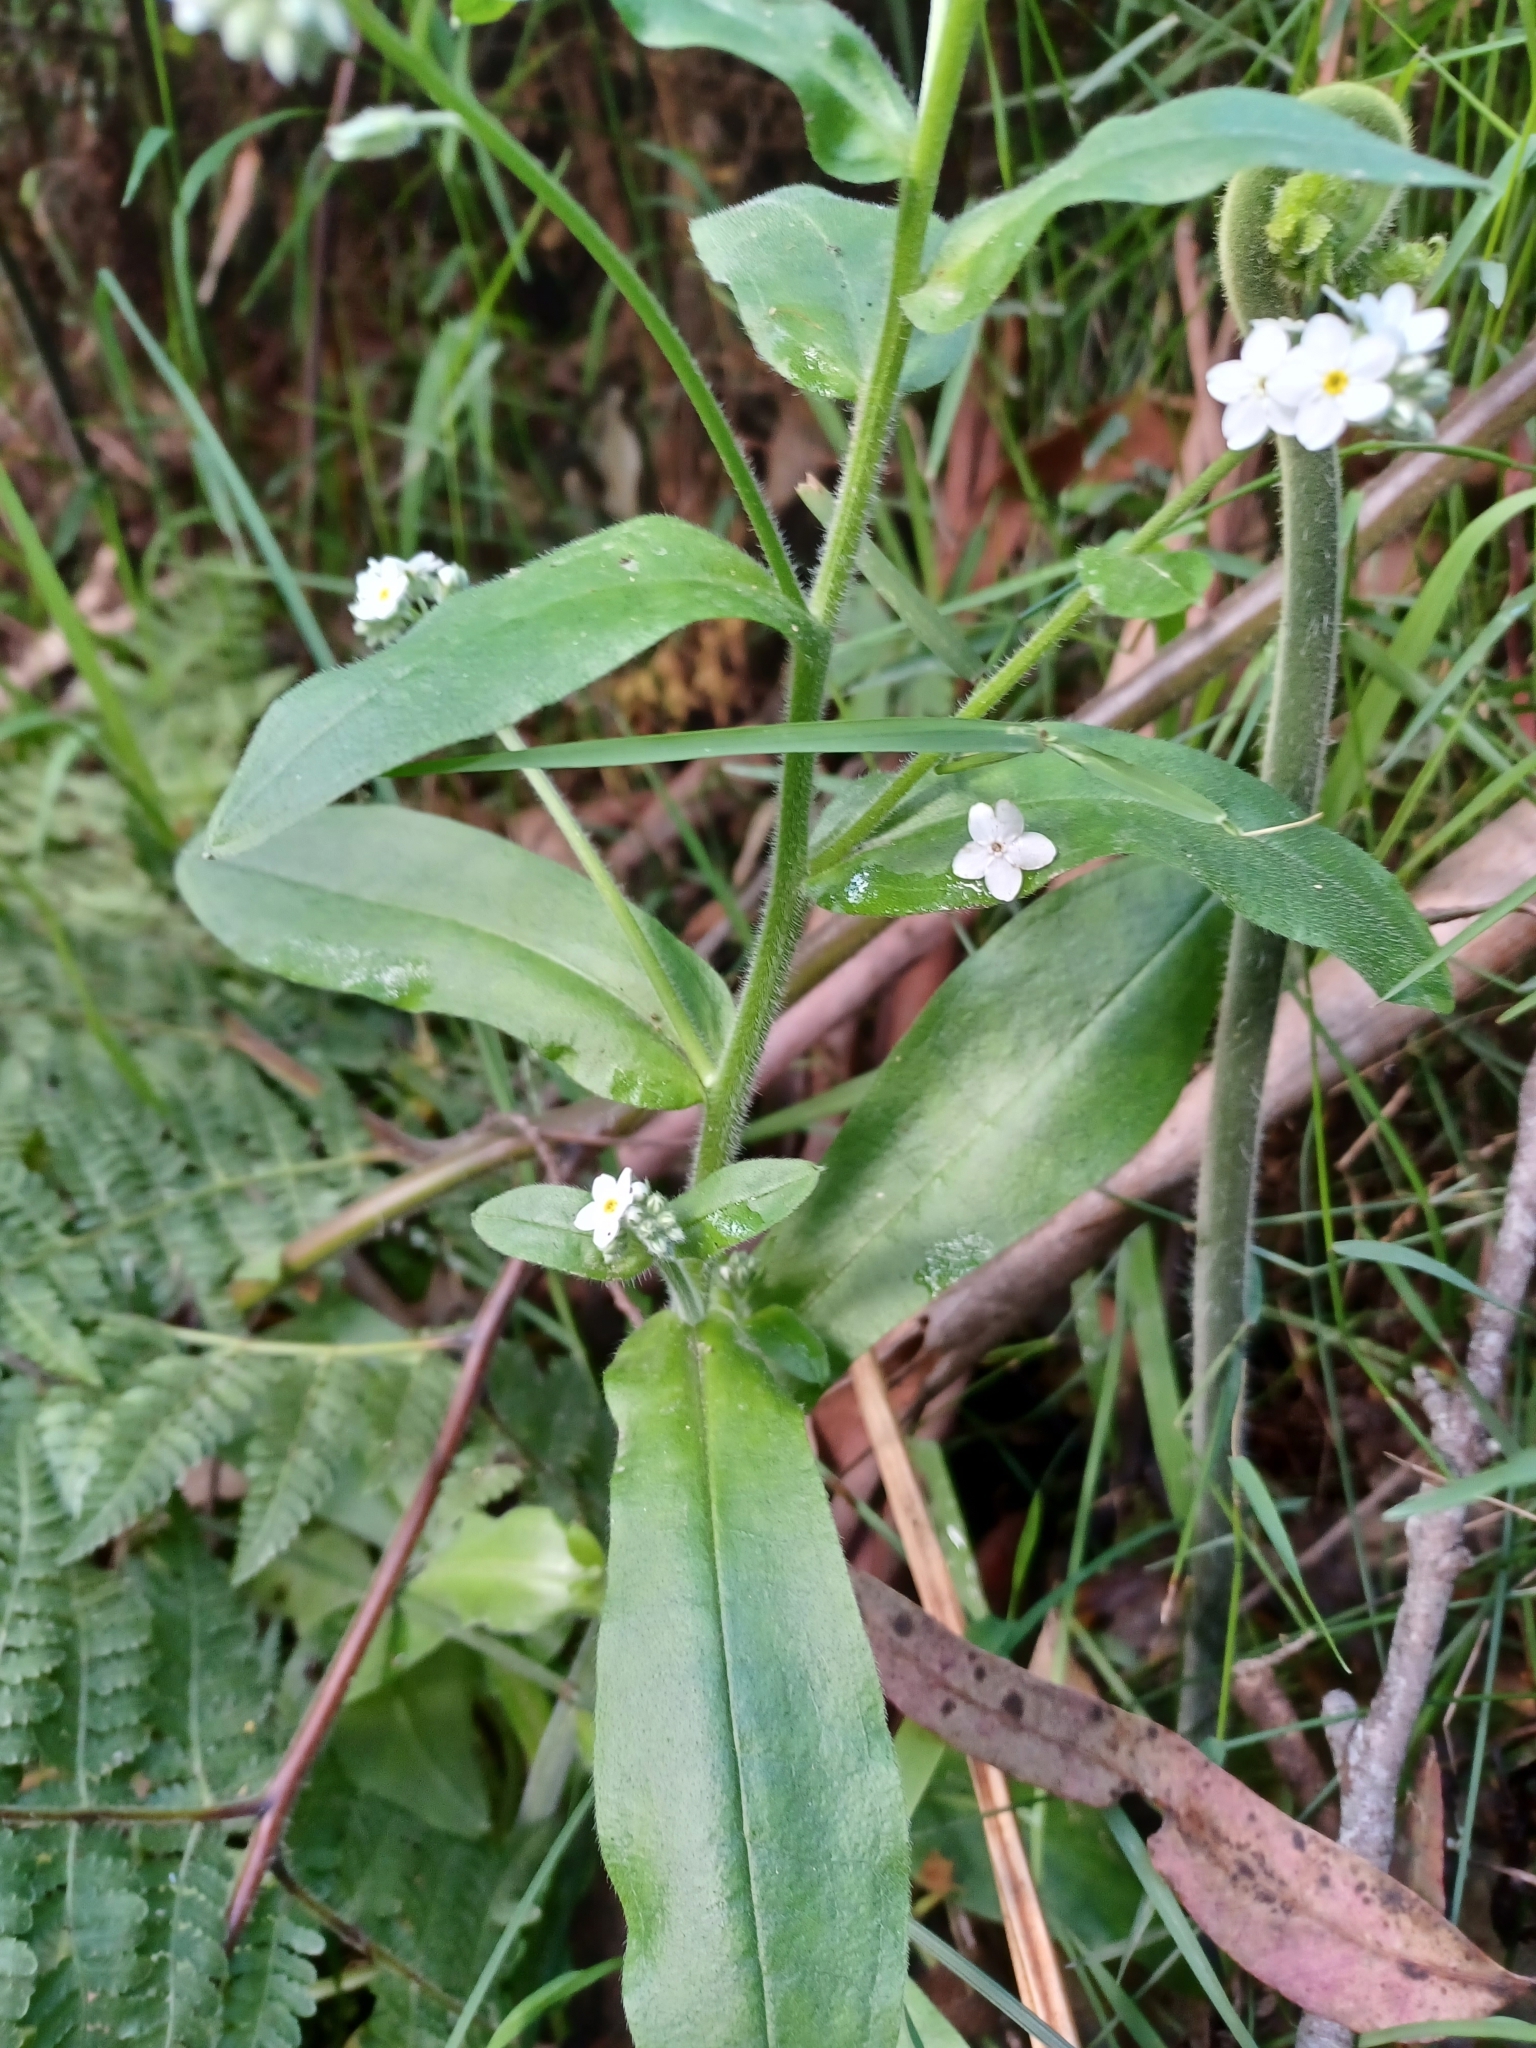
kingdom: Plantae
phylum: Tracheophyta
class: Magnoliopsida
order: Boraginales
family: Boraginaceae
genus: Myosotis
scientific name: Myosotis sylvatica
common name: Wood forget-me-not
